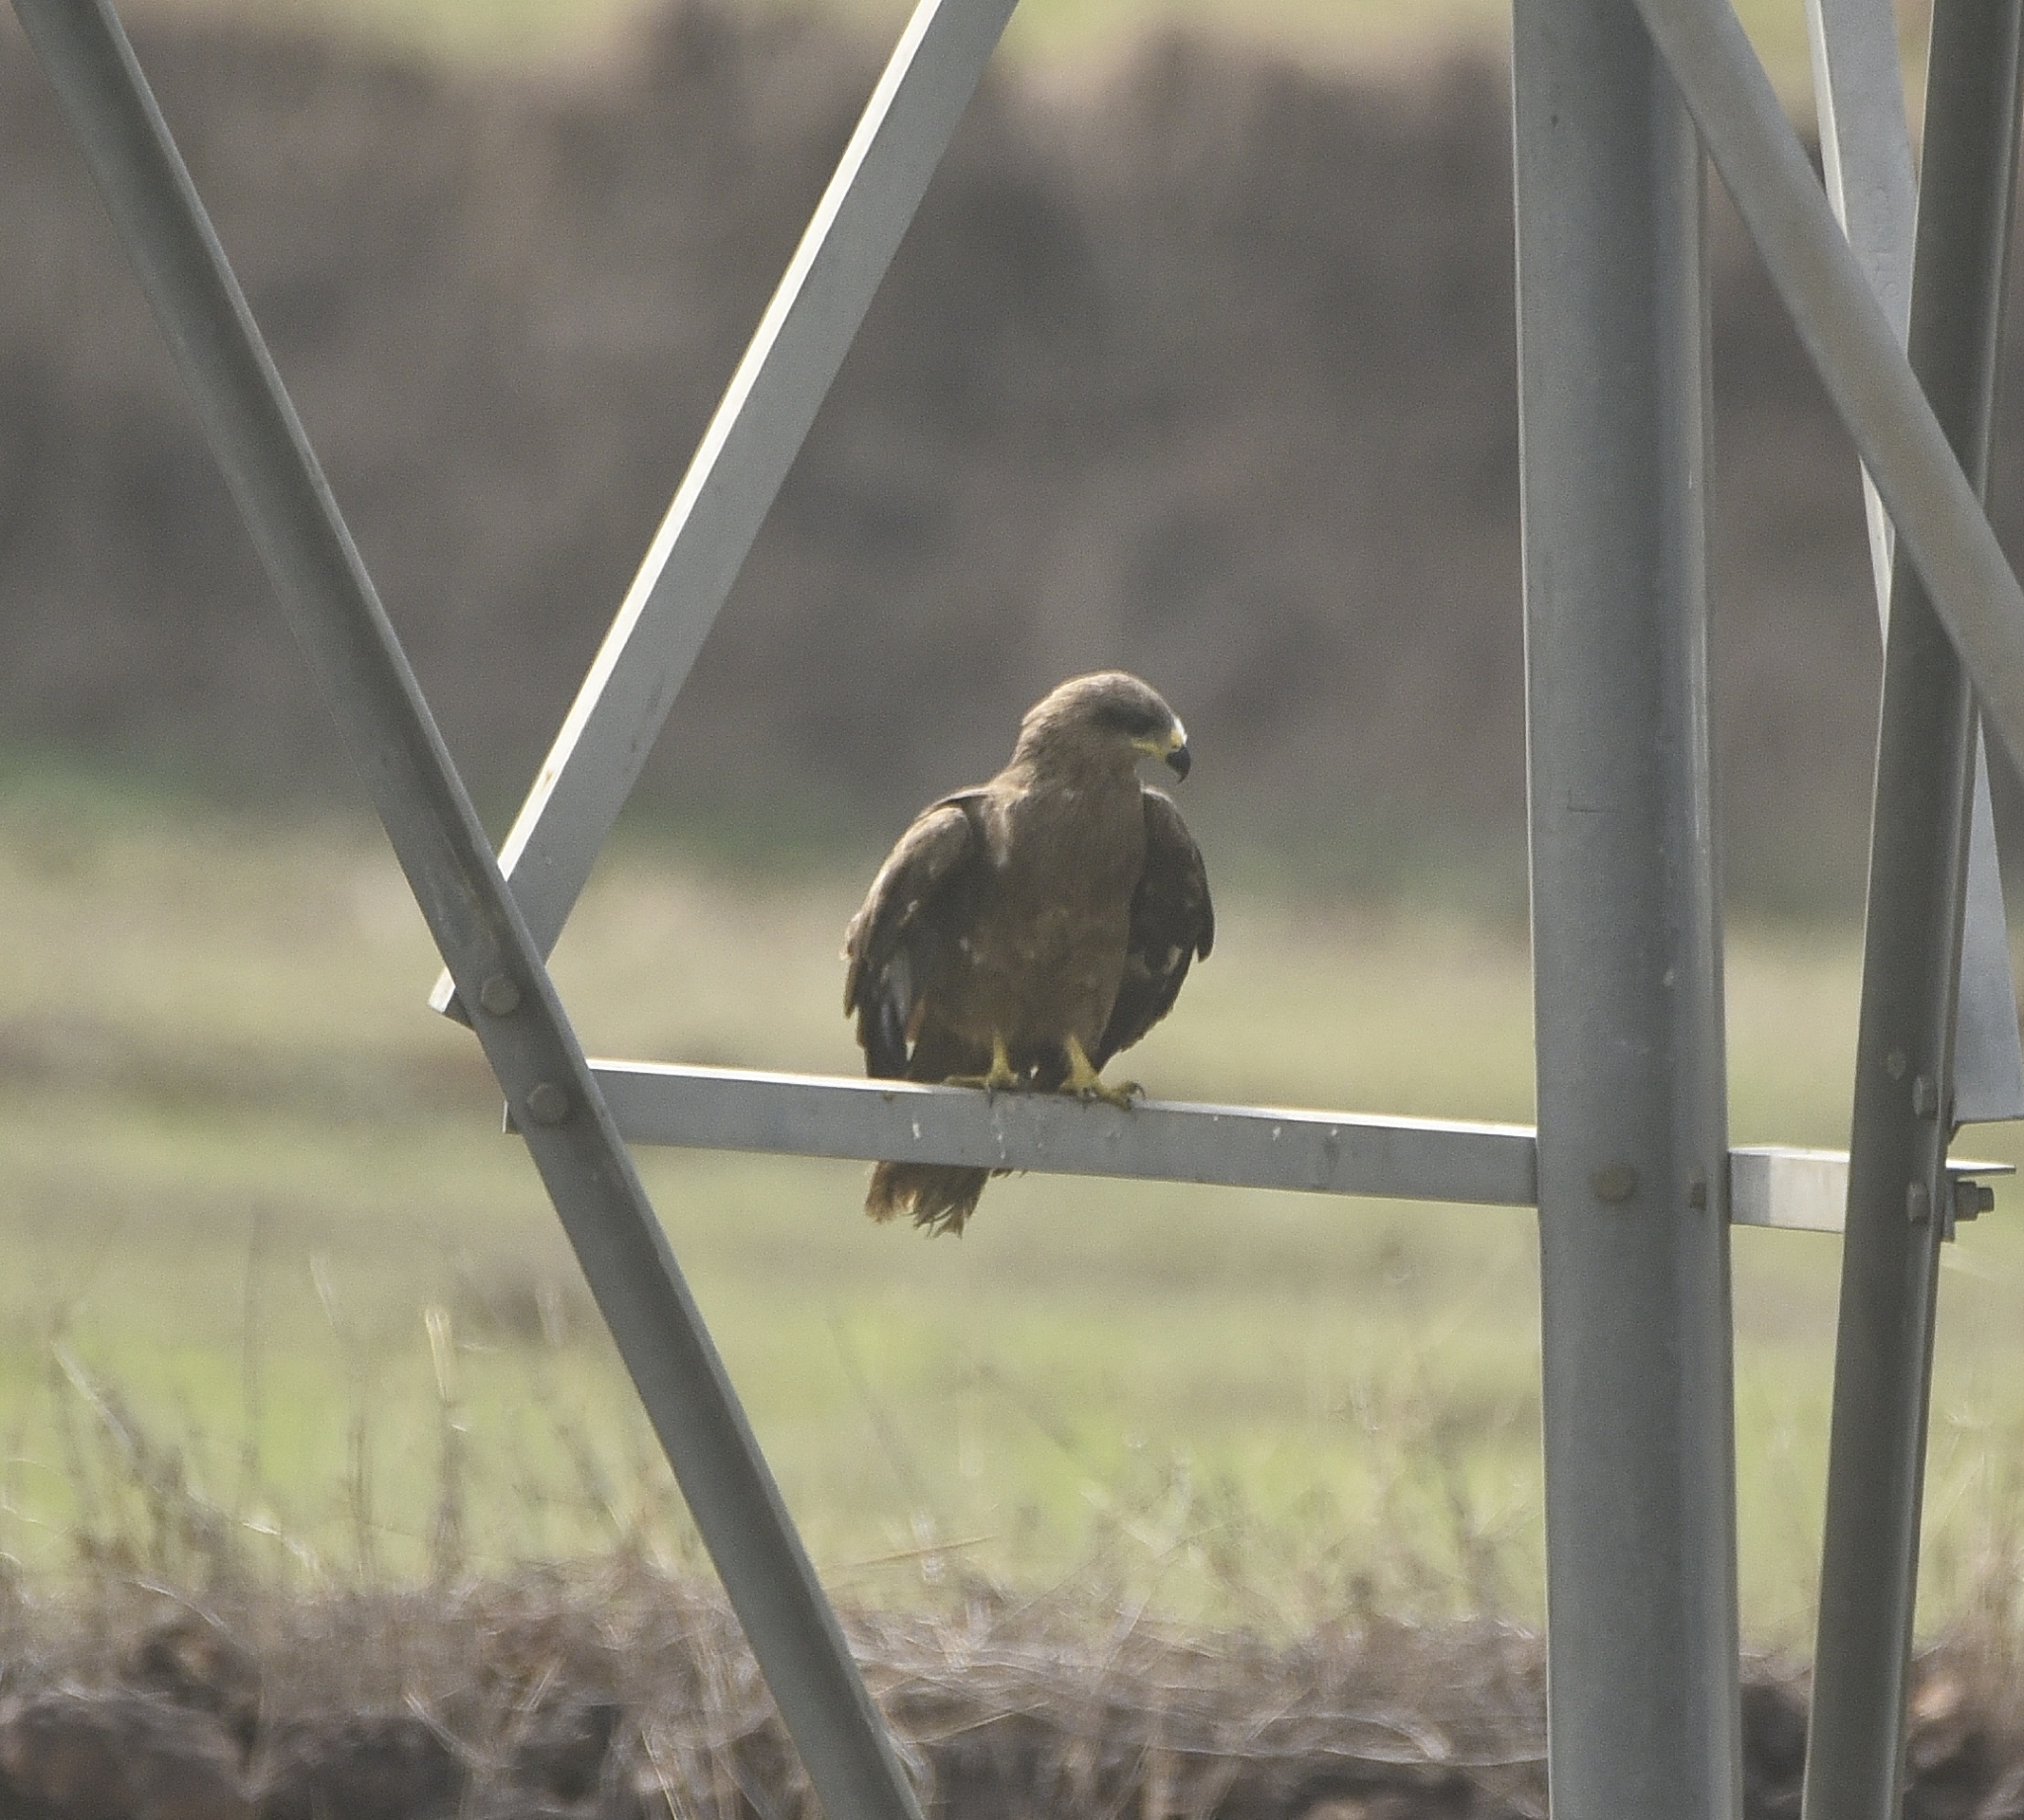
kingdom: Animalia
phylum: Chordata
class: Aves
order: Accipitriformes
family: Accipitridae
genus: Milvus
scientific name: Milvus migrans
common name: Black kite
